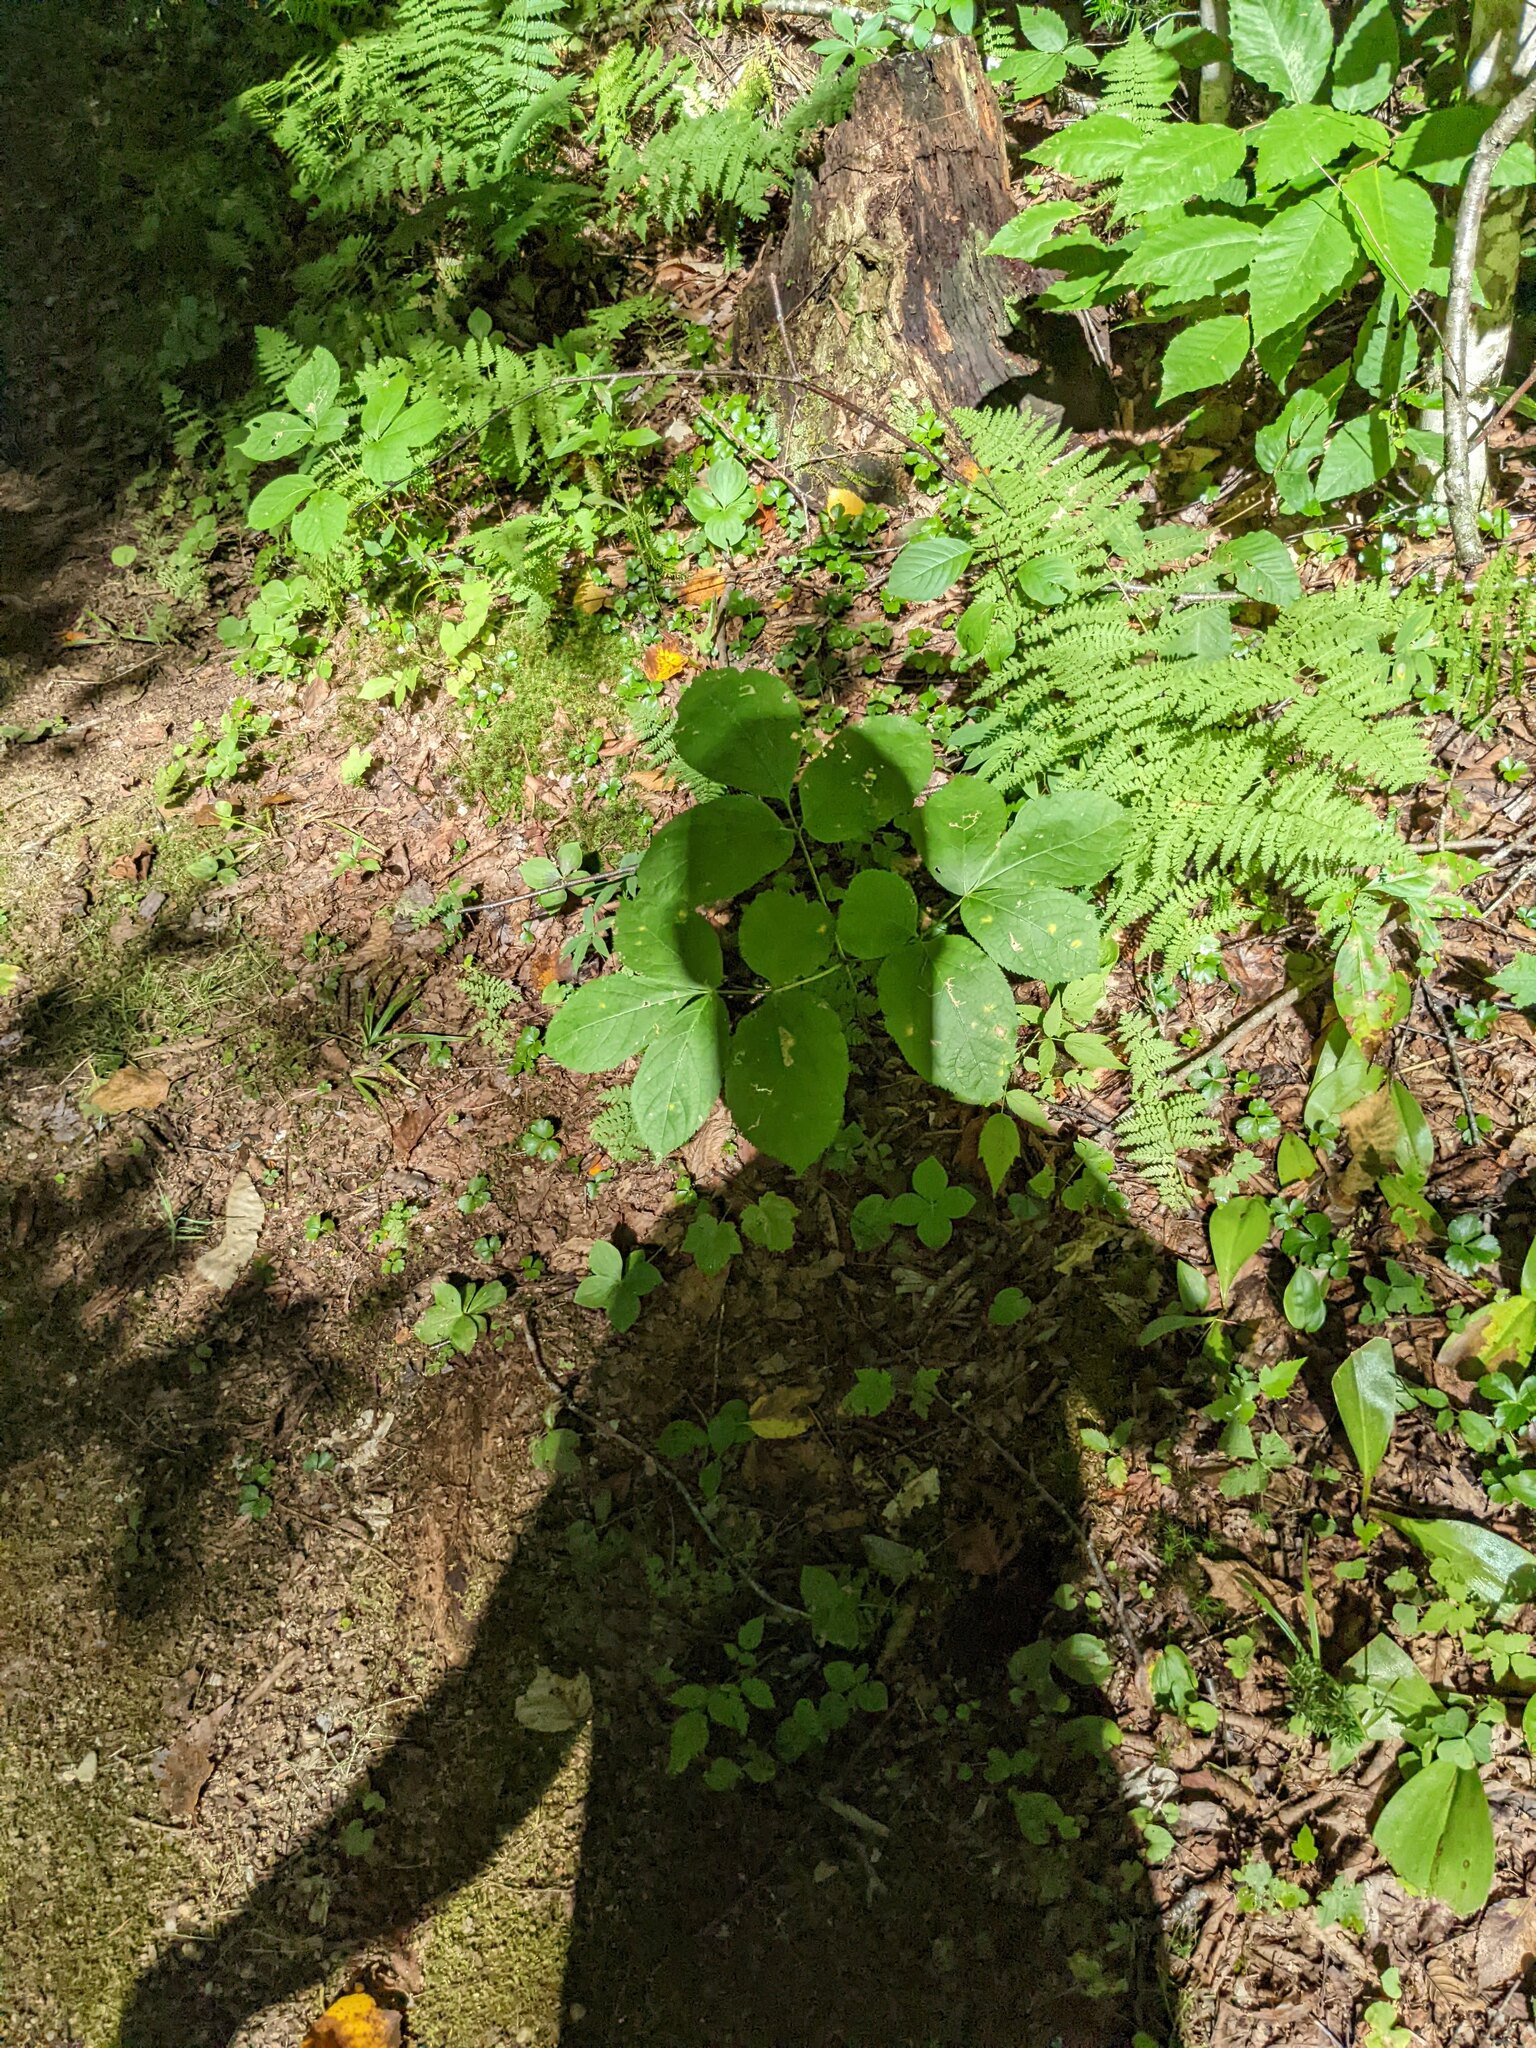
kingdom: Plantae
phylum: Tracheophyta
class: Magnoliopsida
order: Apiales
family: Araliaceae
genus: Aralia
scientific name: Aralia nudicaulis
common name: Wild sarsaparilla
